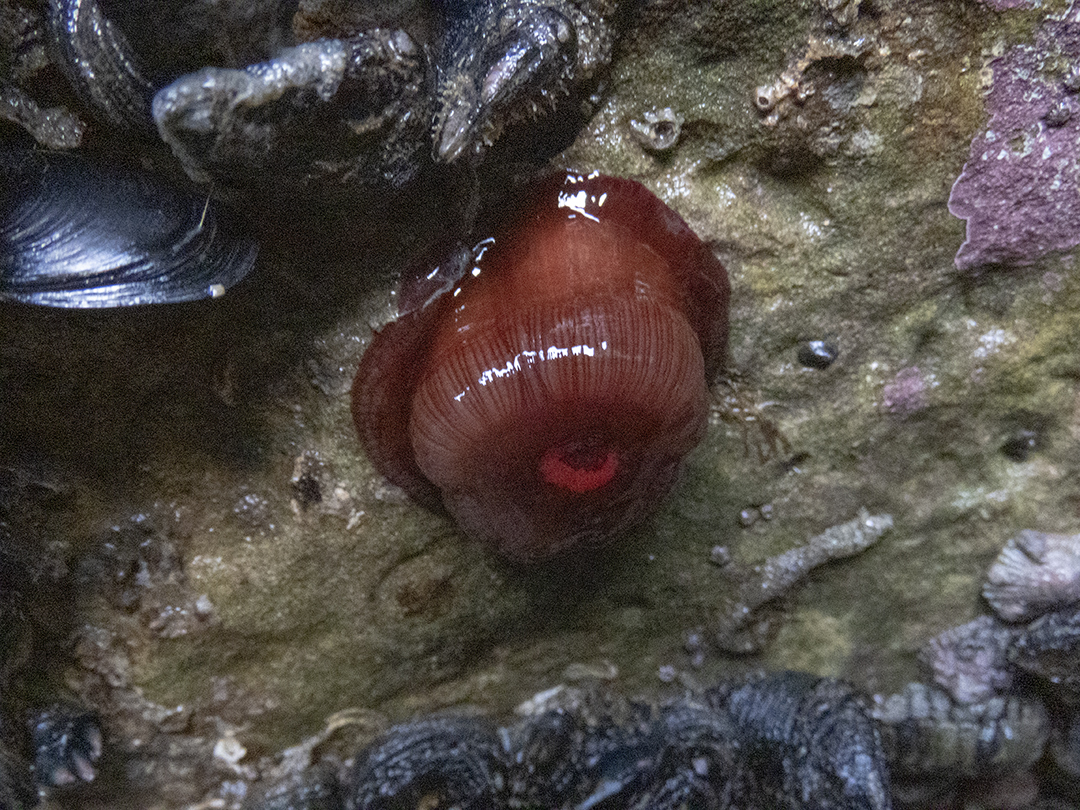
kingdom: Animalia
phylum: Cnidaria
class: Anthozoa
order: Actiniaria
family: Actiniidae
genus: Actinia
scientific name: Actinia tenebrosa
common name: Waratah anemone
